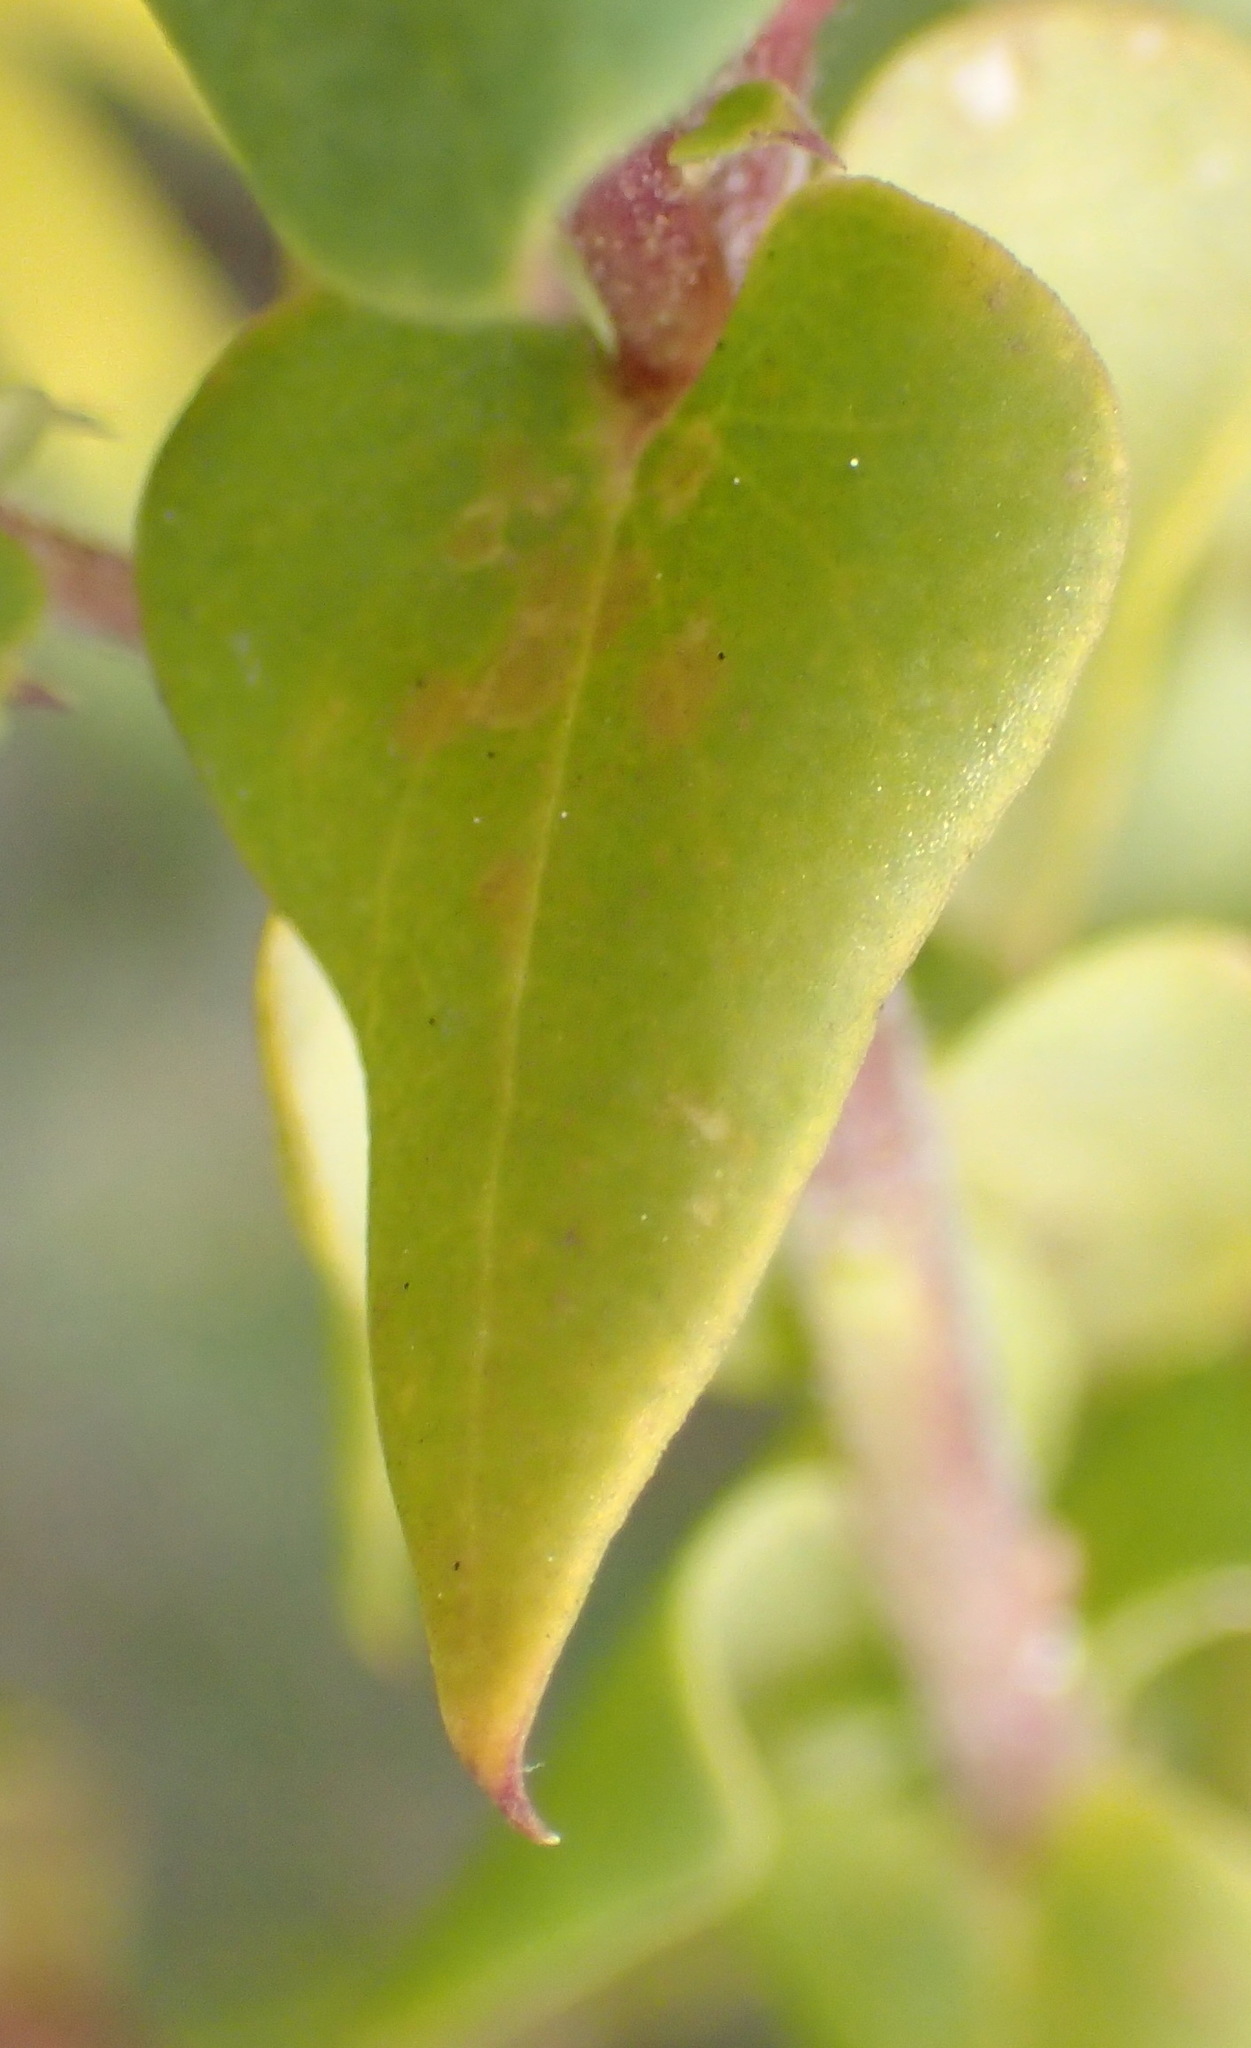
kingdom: Plantae
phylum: Tracheophyta
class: Magnoliopsida
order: Fabales
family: Polygalaceae
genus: Polygala
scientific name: Polygala fruticosa
